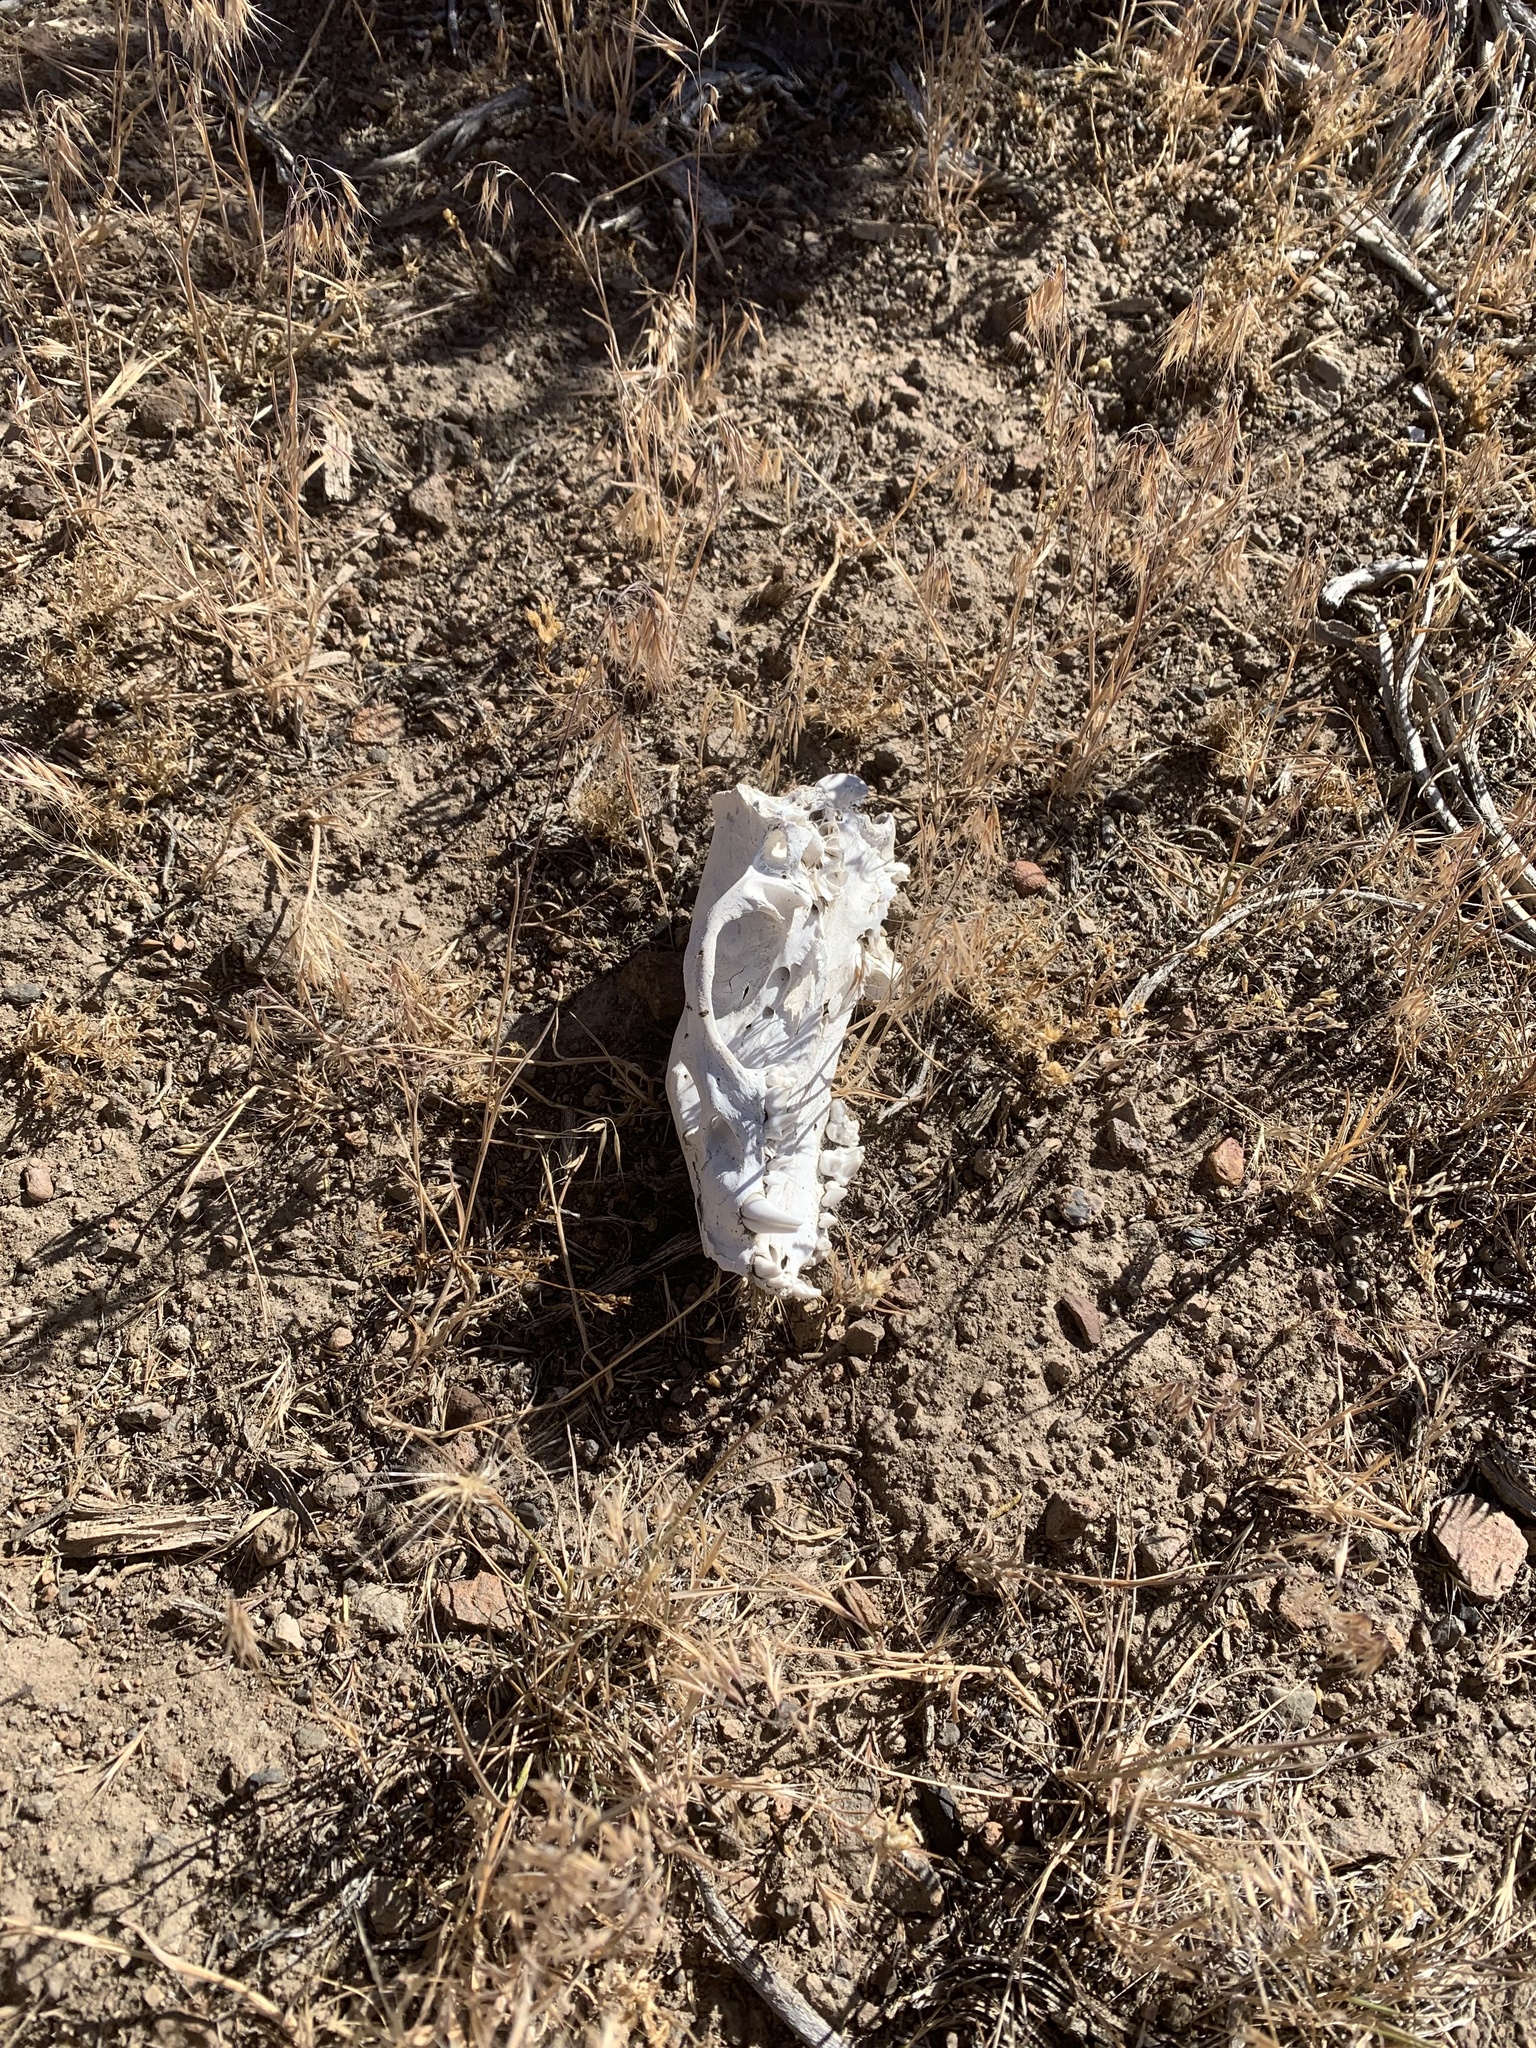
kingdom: Animalia
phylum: Chordata
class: Mammalia
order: Carnivora
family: Mustelidae
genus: Taxidea
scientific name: Taxidea taxus
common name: American badger
